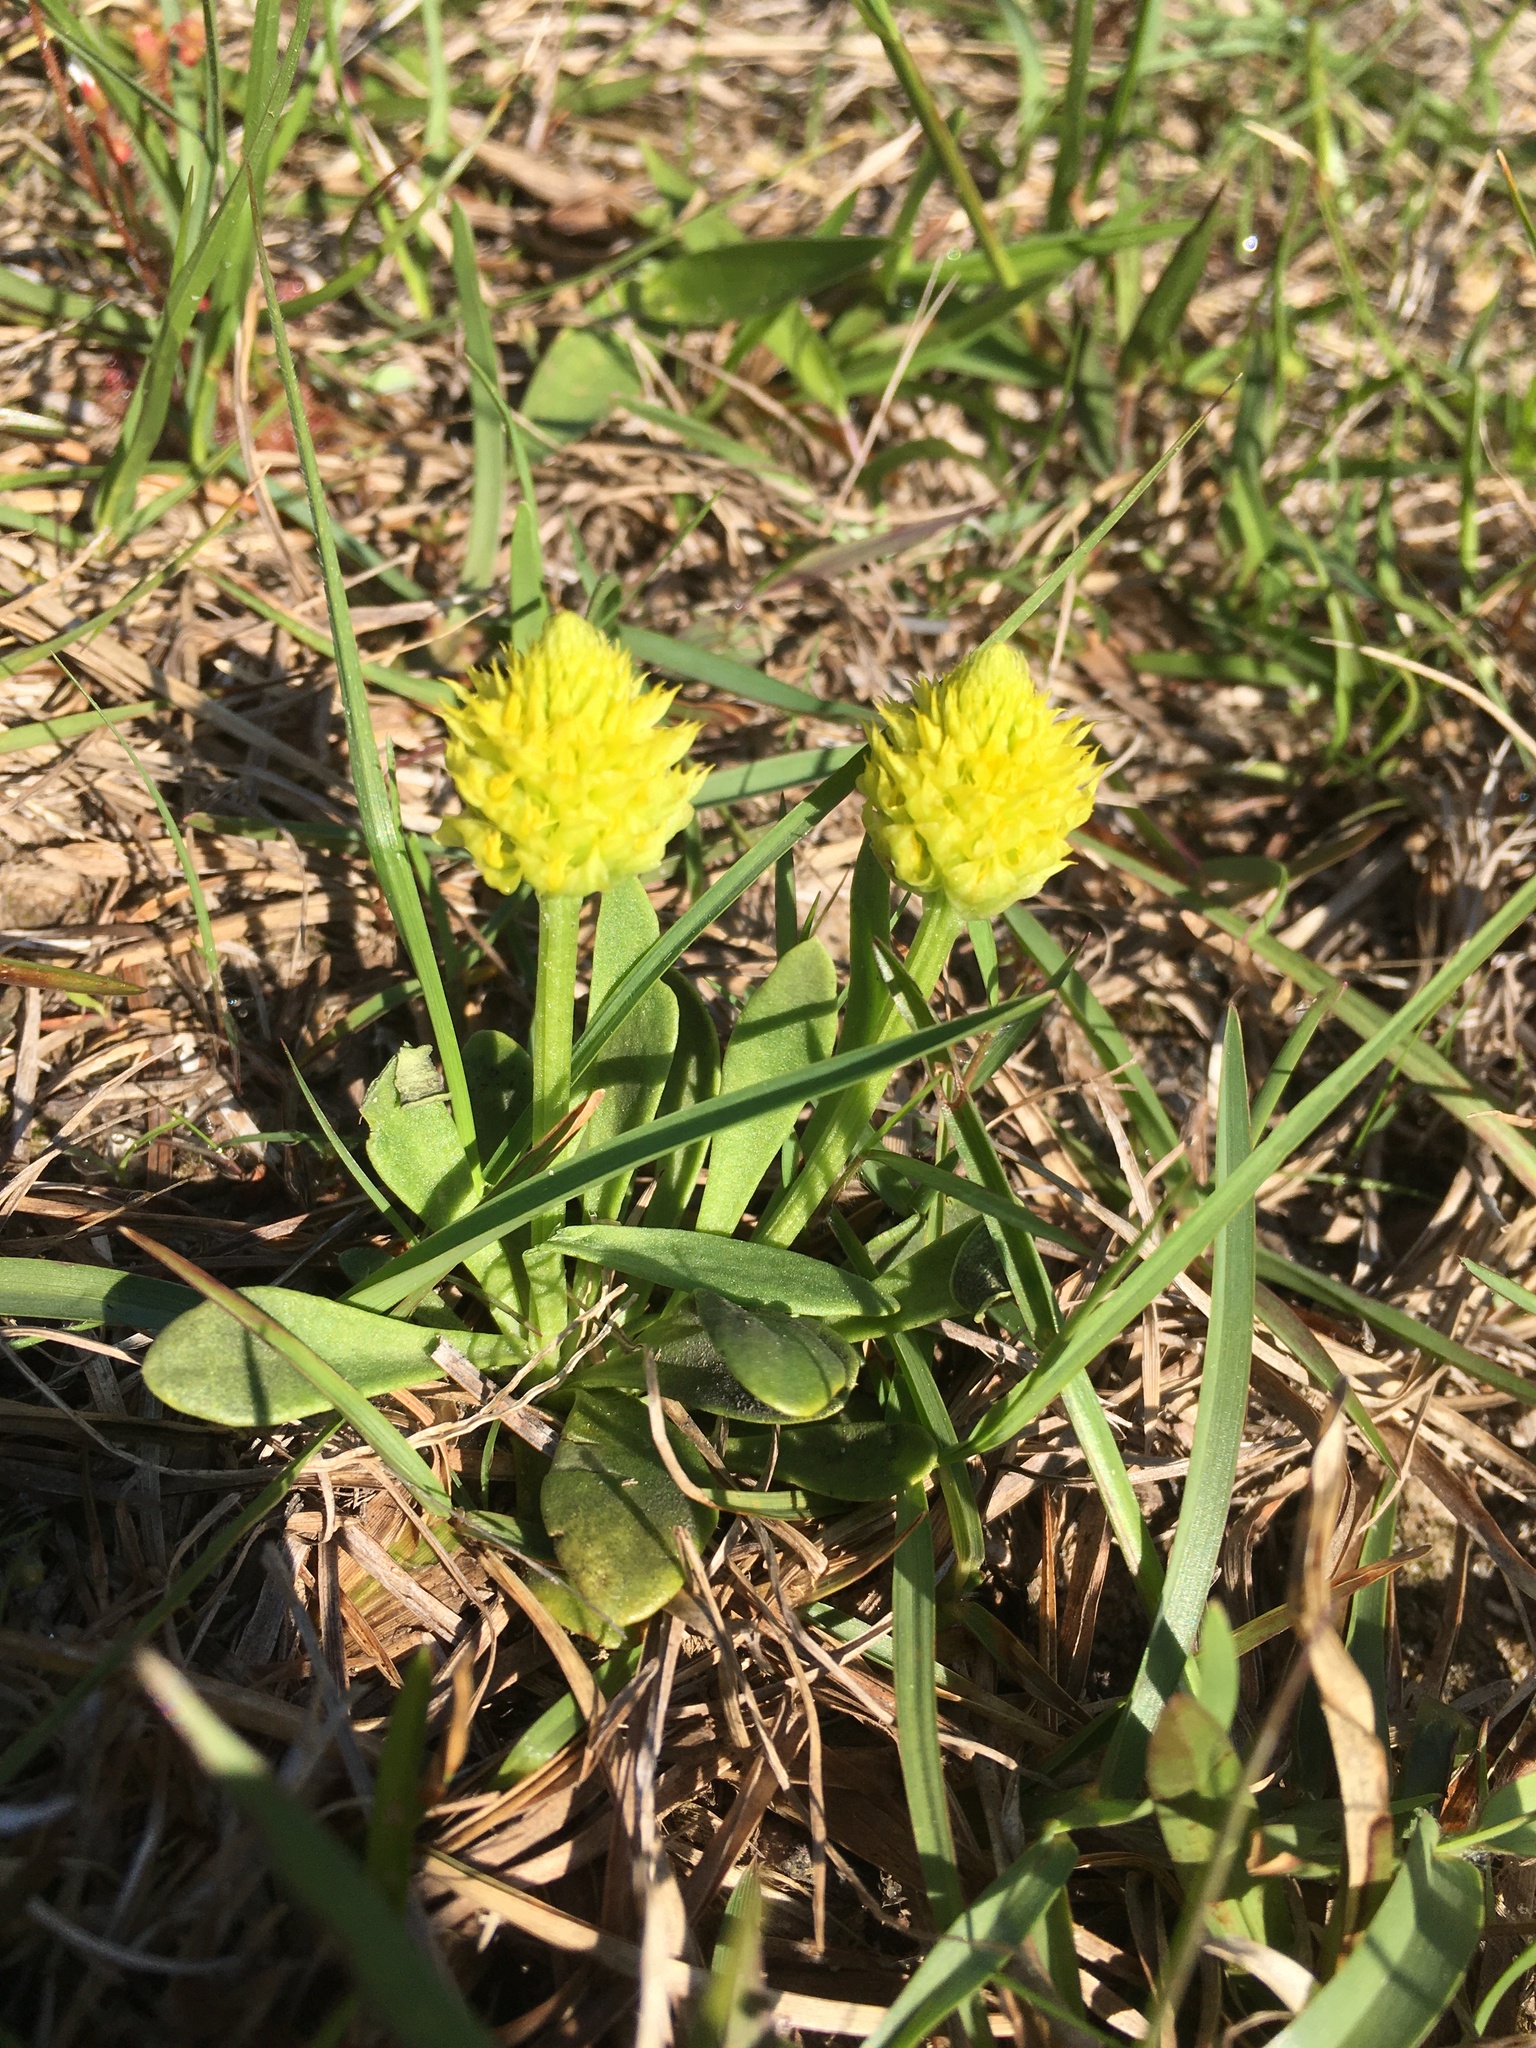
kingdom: Plantae
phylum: Tracheophyta
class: Magnoliopsida
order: Fabales
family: Polygalaceae
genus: Polygala
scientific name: Polygala nana
